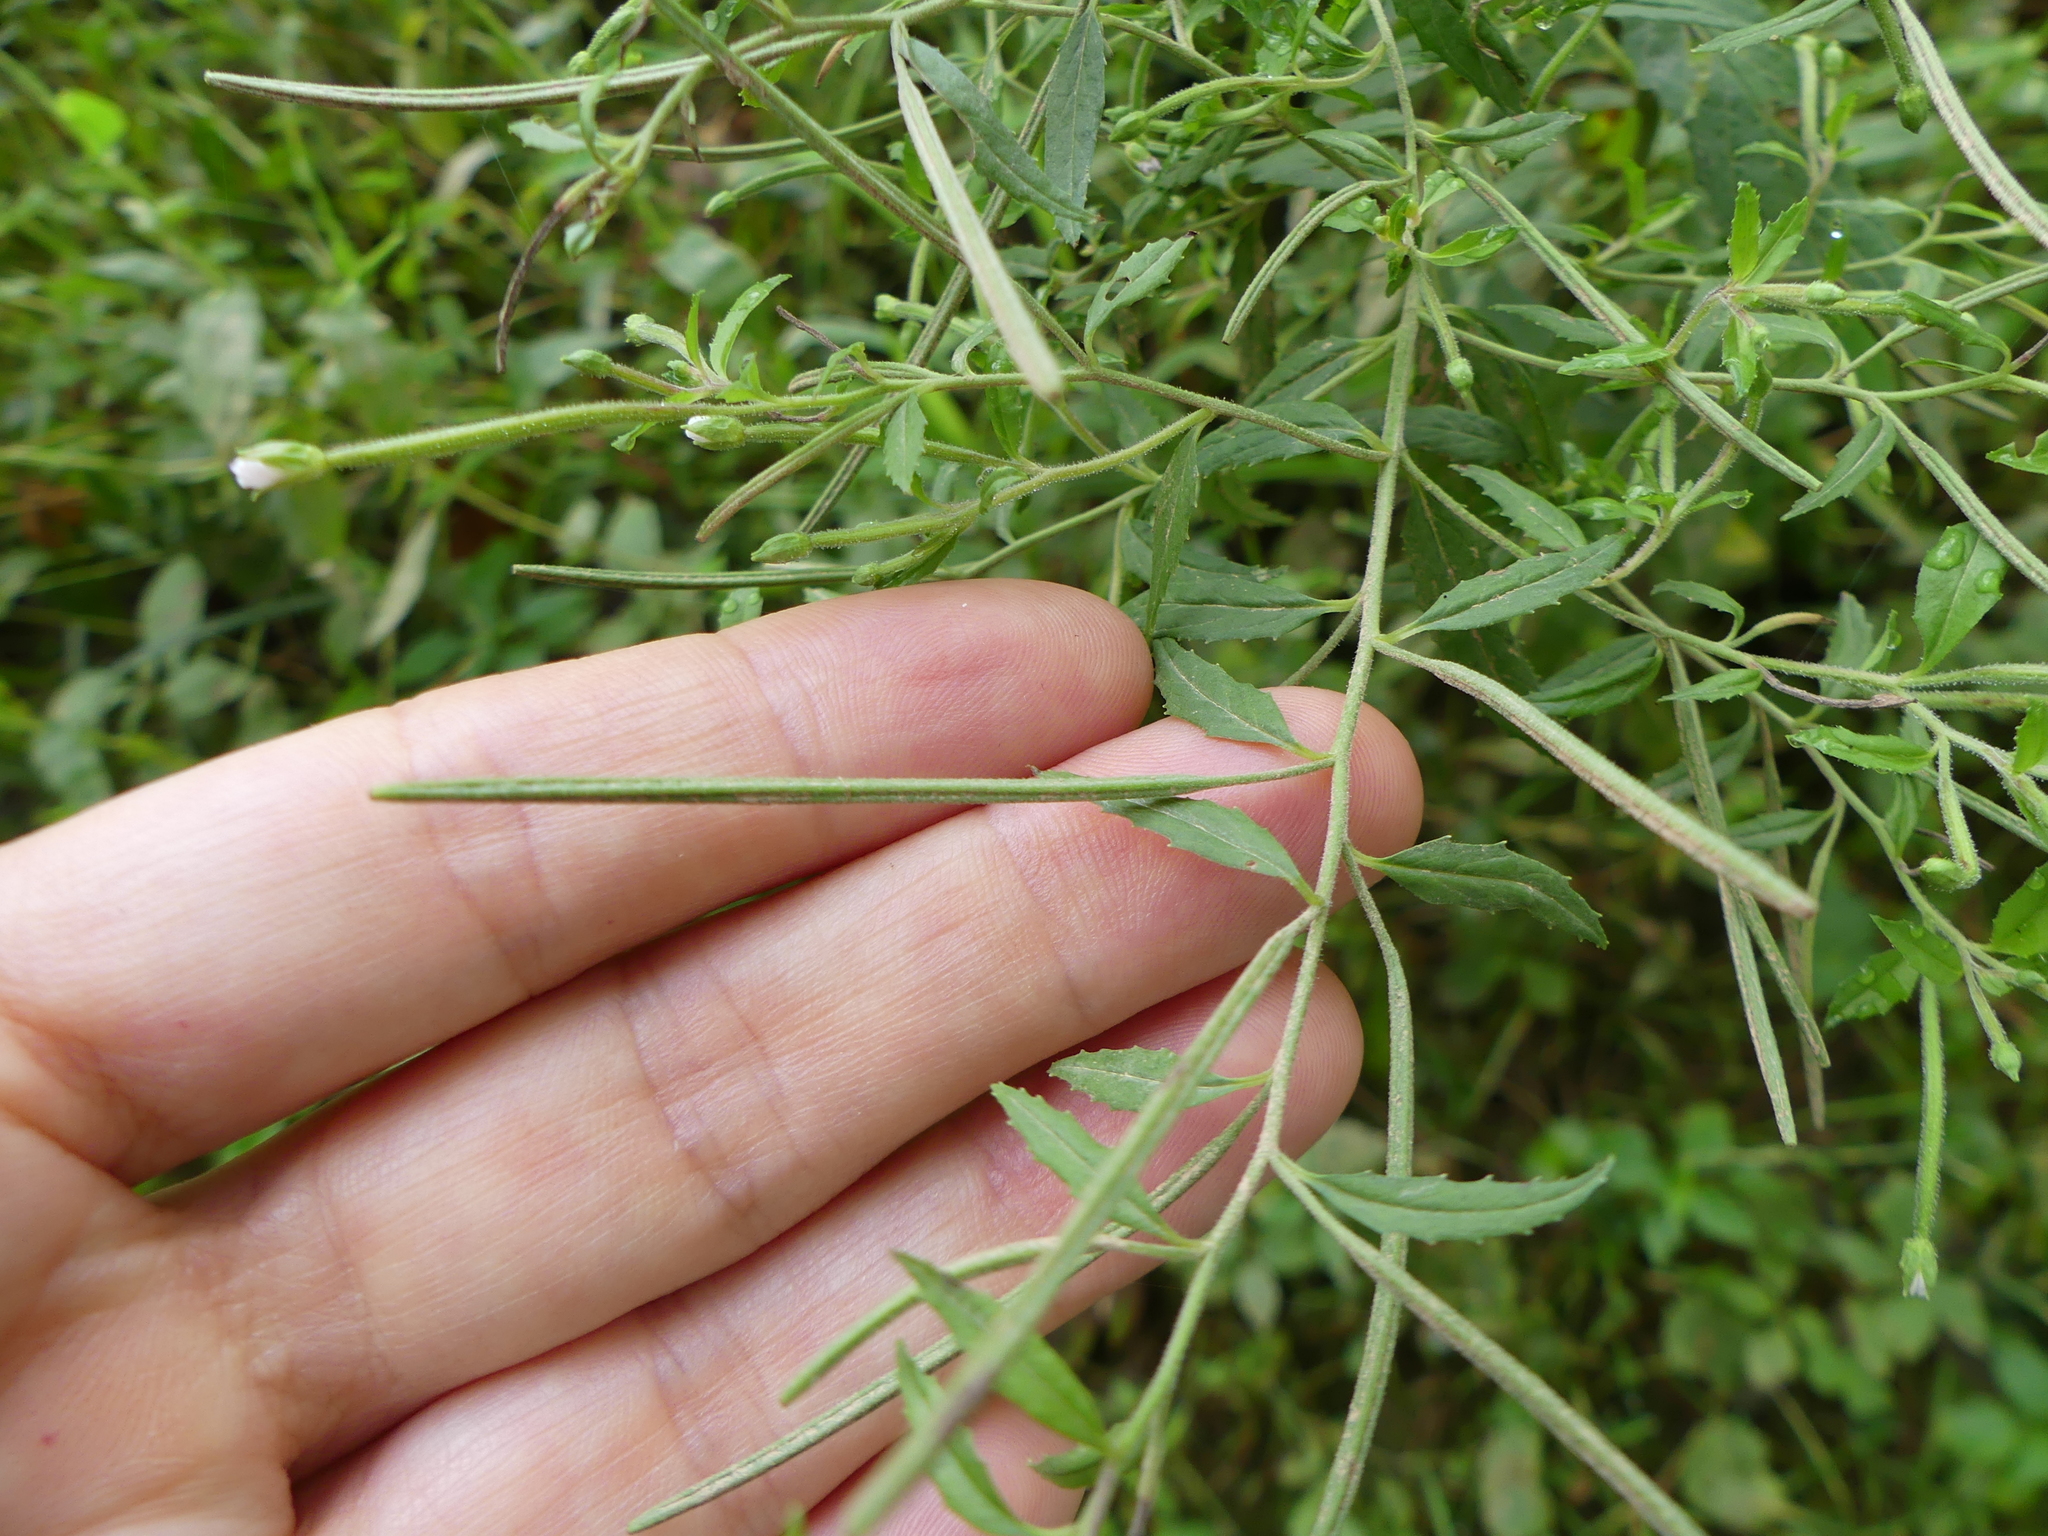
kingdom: Plantae
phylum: Tracheophyta
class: Magnoliopsida
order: Myrtales
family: Onagraceae
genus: Epilobium
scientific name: Epilobium coloratum
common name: Bronze willowherb
